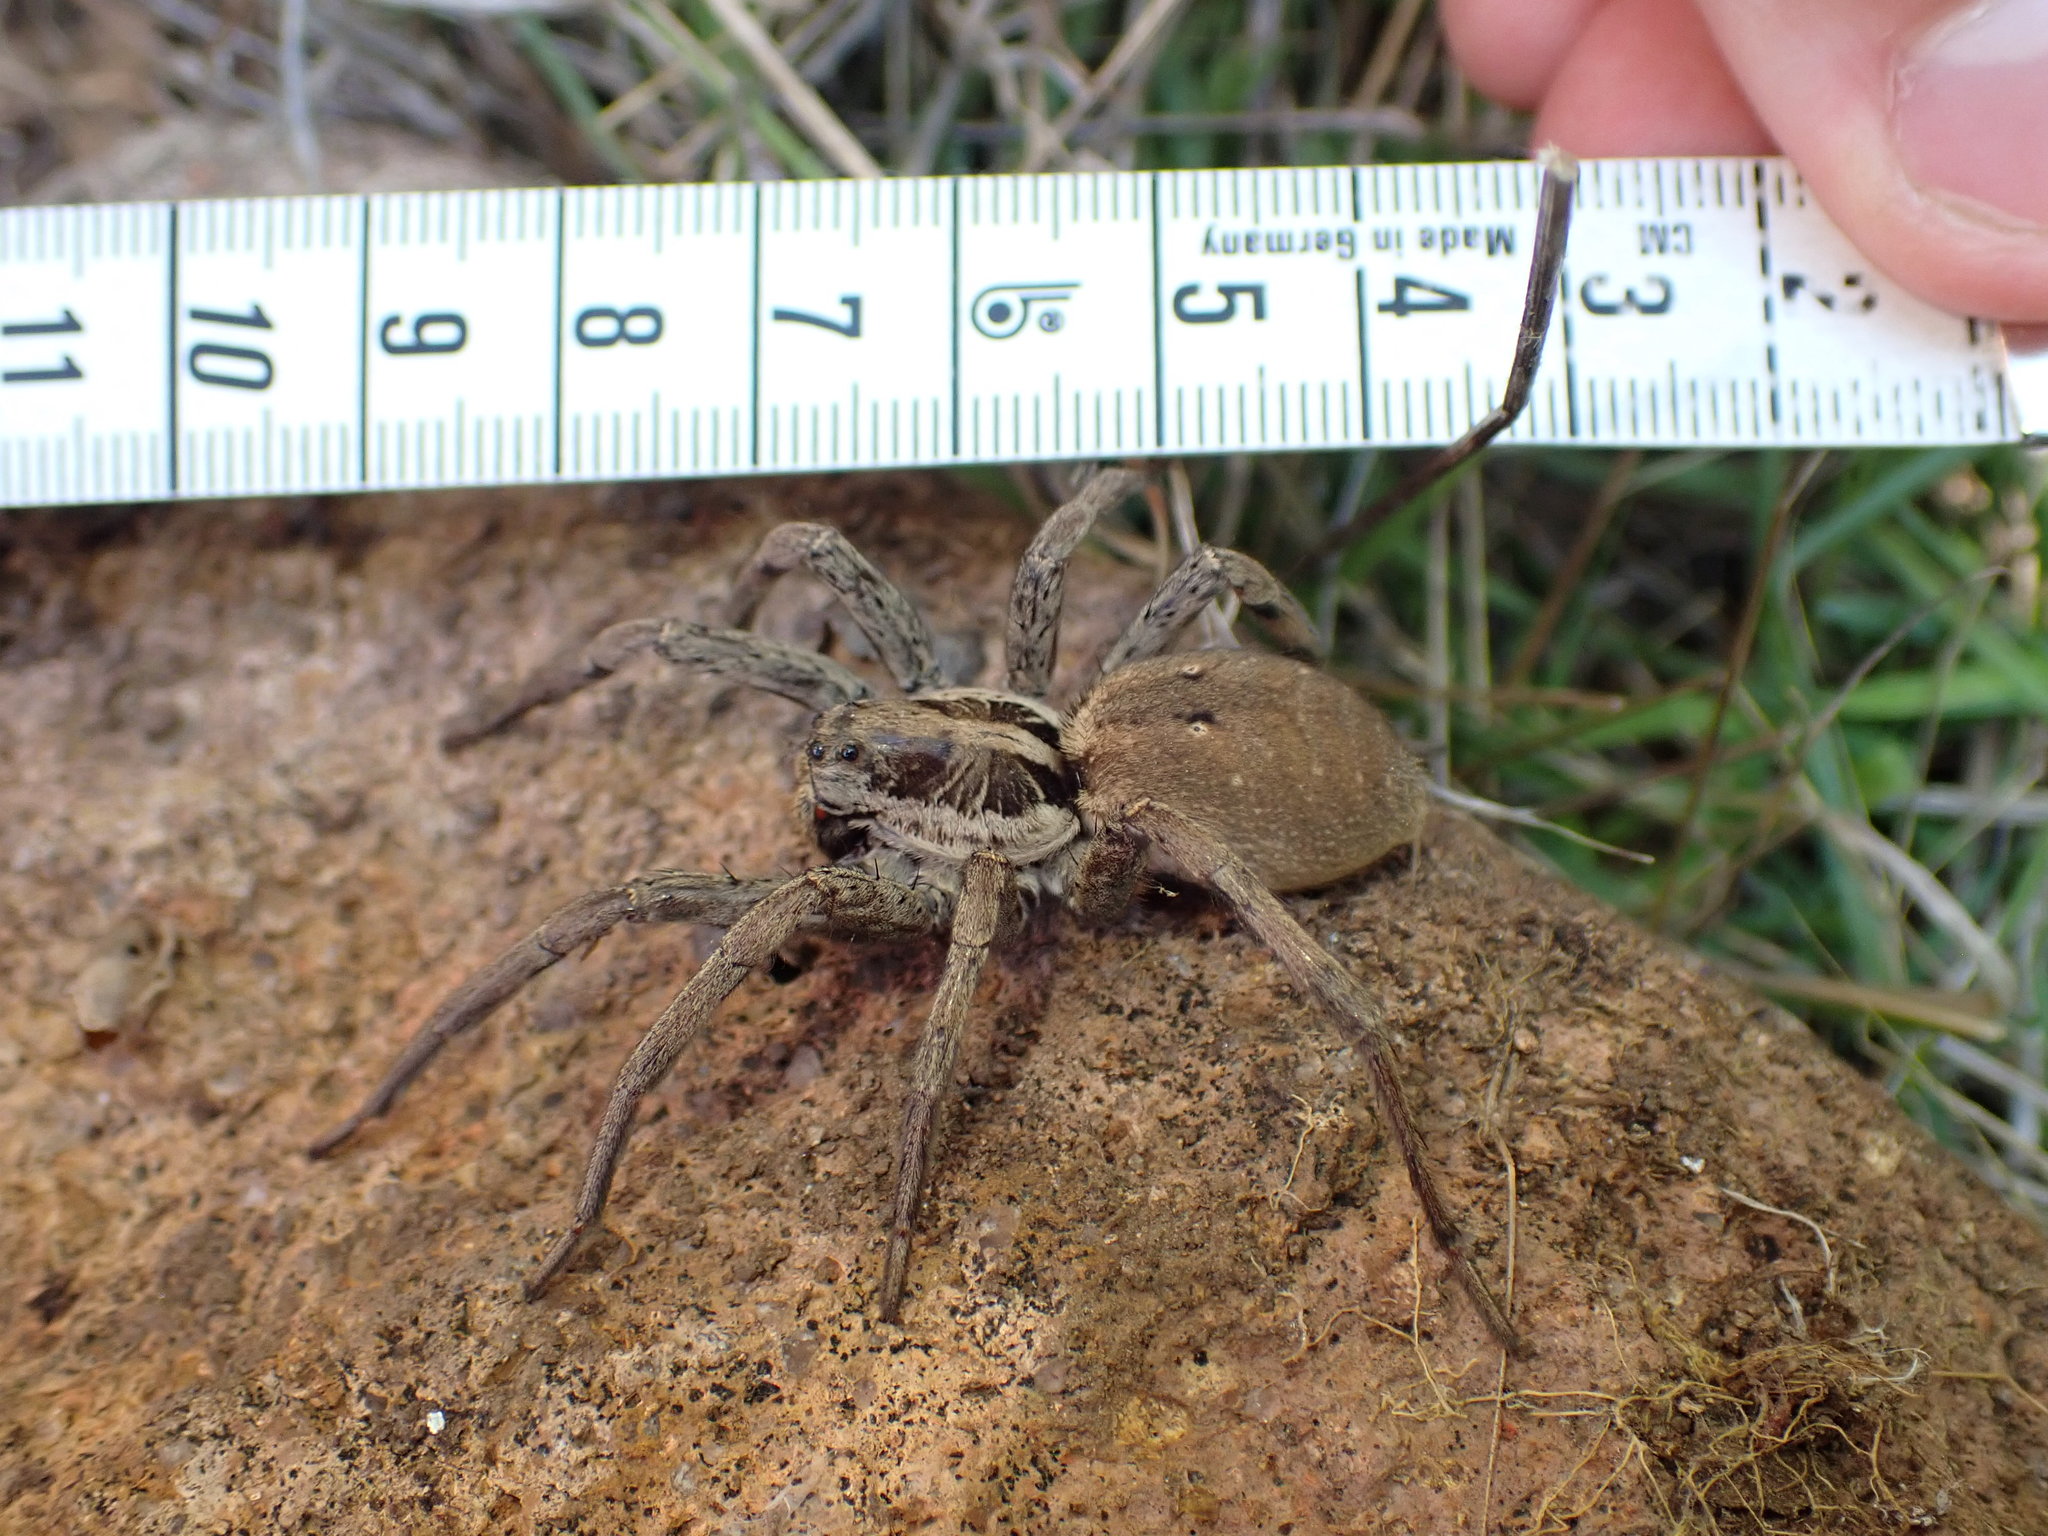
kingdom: Animalia
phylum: Arthropoda
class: Arachnida
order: Araneae
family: Lycosidae
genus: Hogna
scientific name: Hogna radiata
